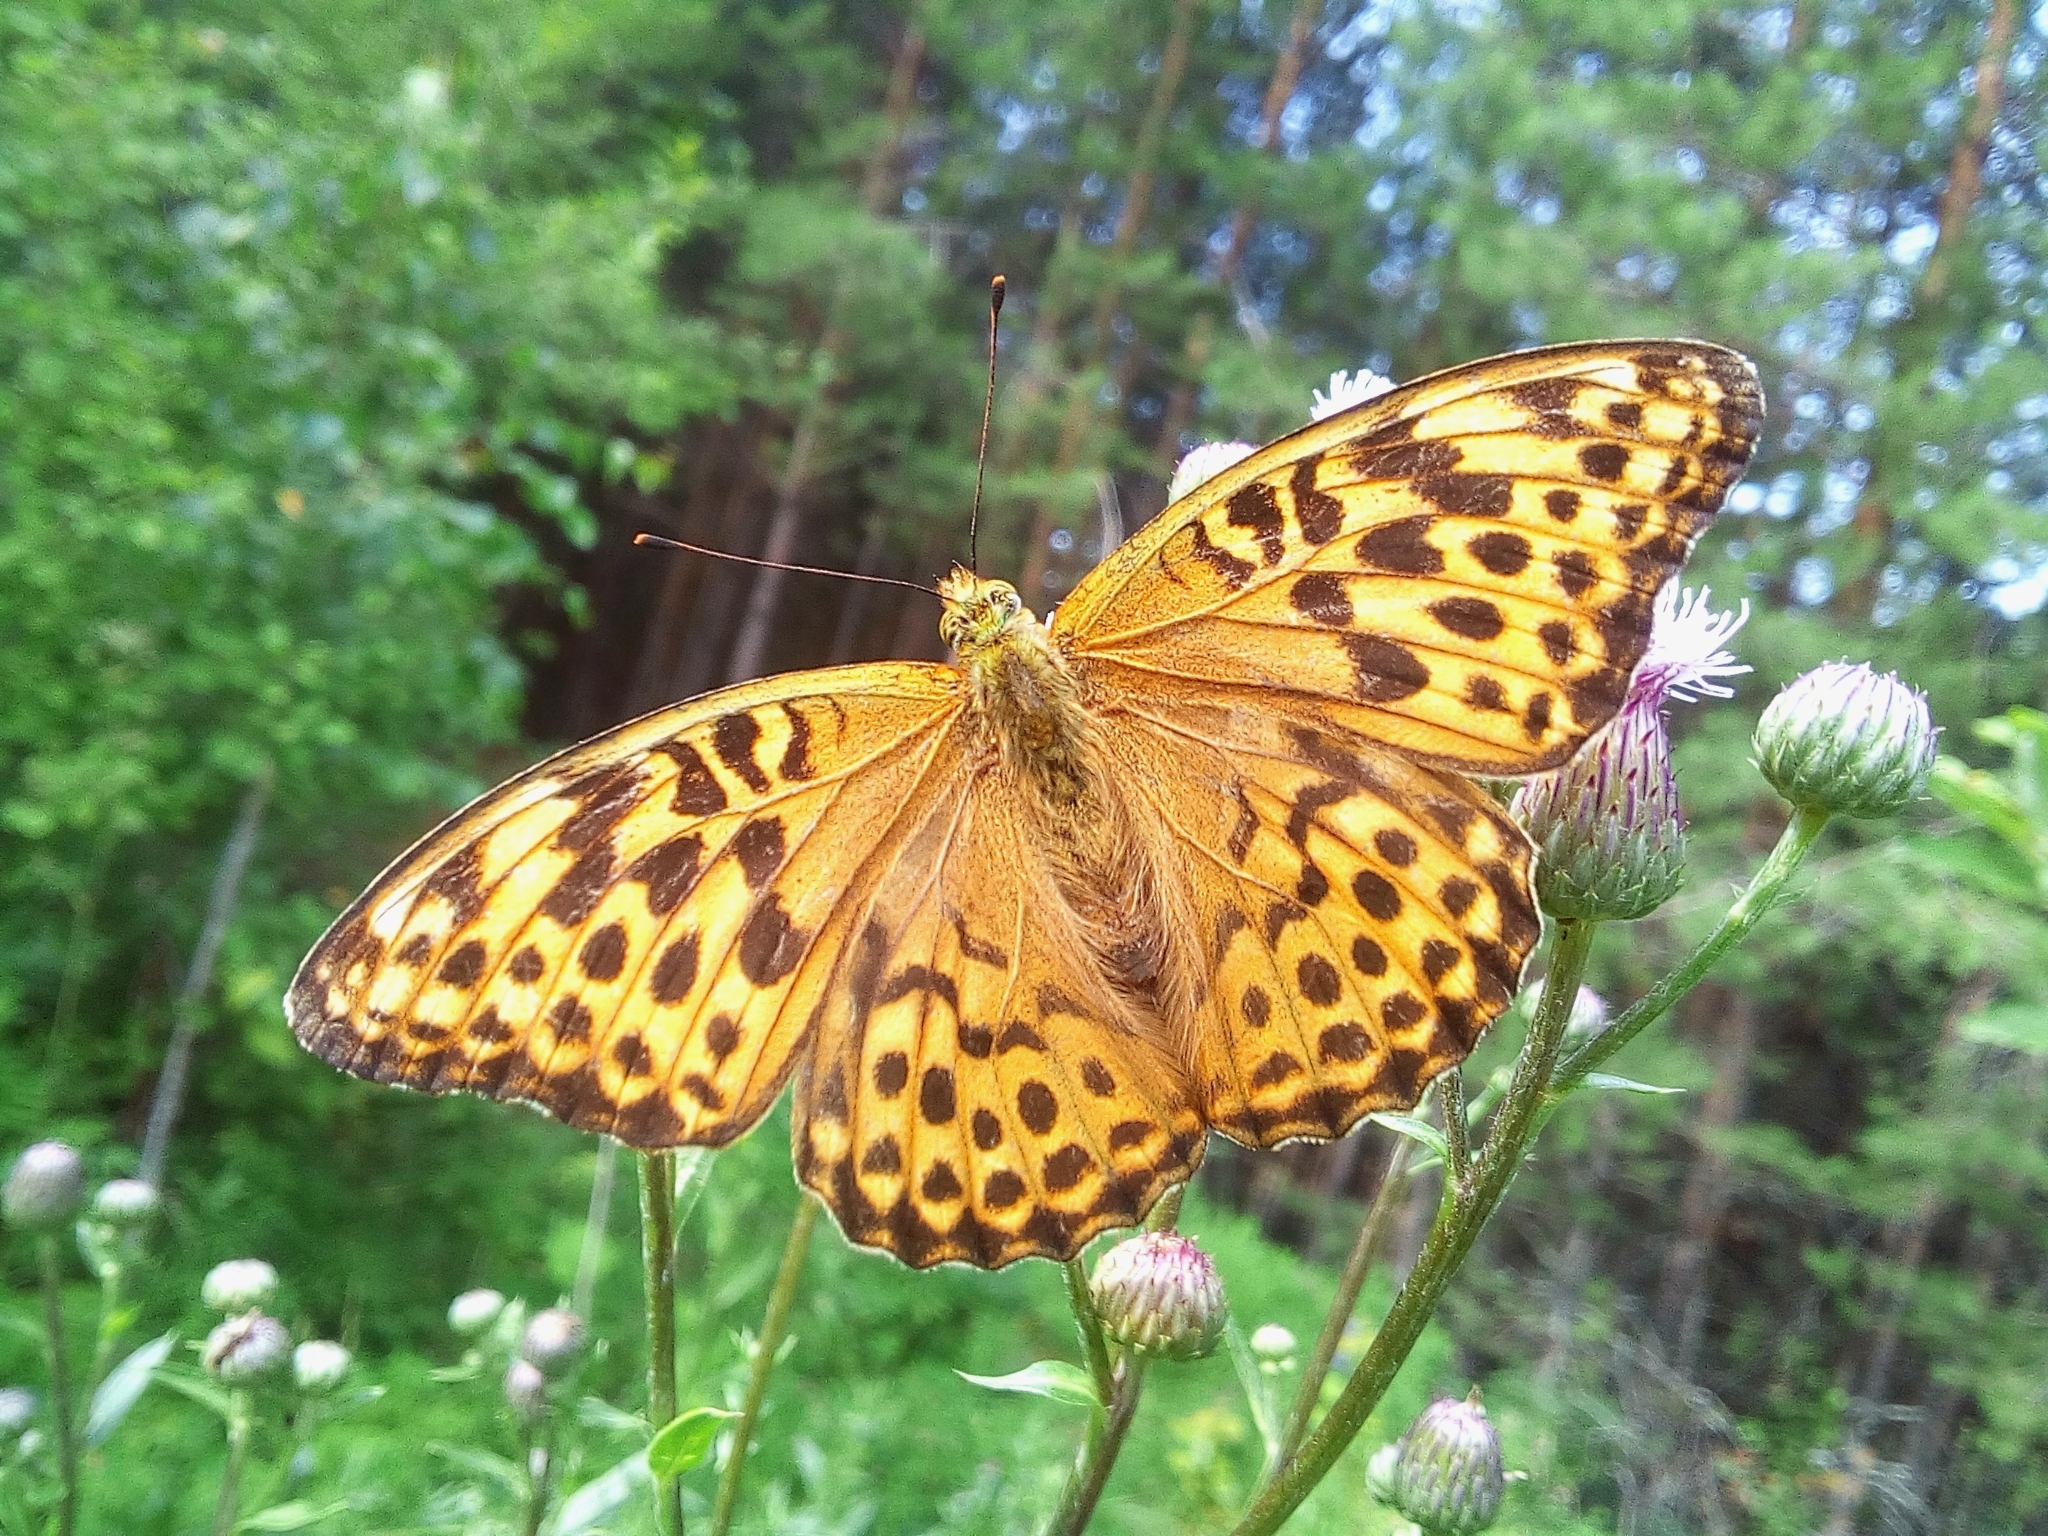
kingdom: Animalia
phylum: Arthropoda
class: Insecta
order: Lepidoptera
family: Nymphalidae
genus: Argynnis
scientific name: Argynnis paphia
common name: Silver-washed fritillary
